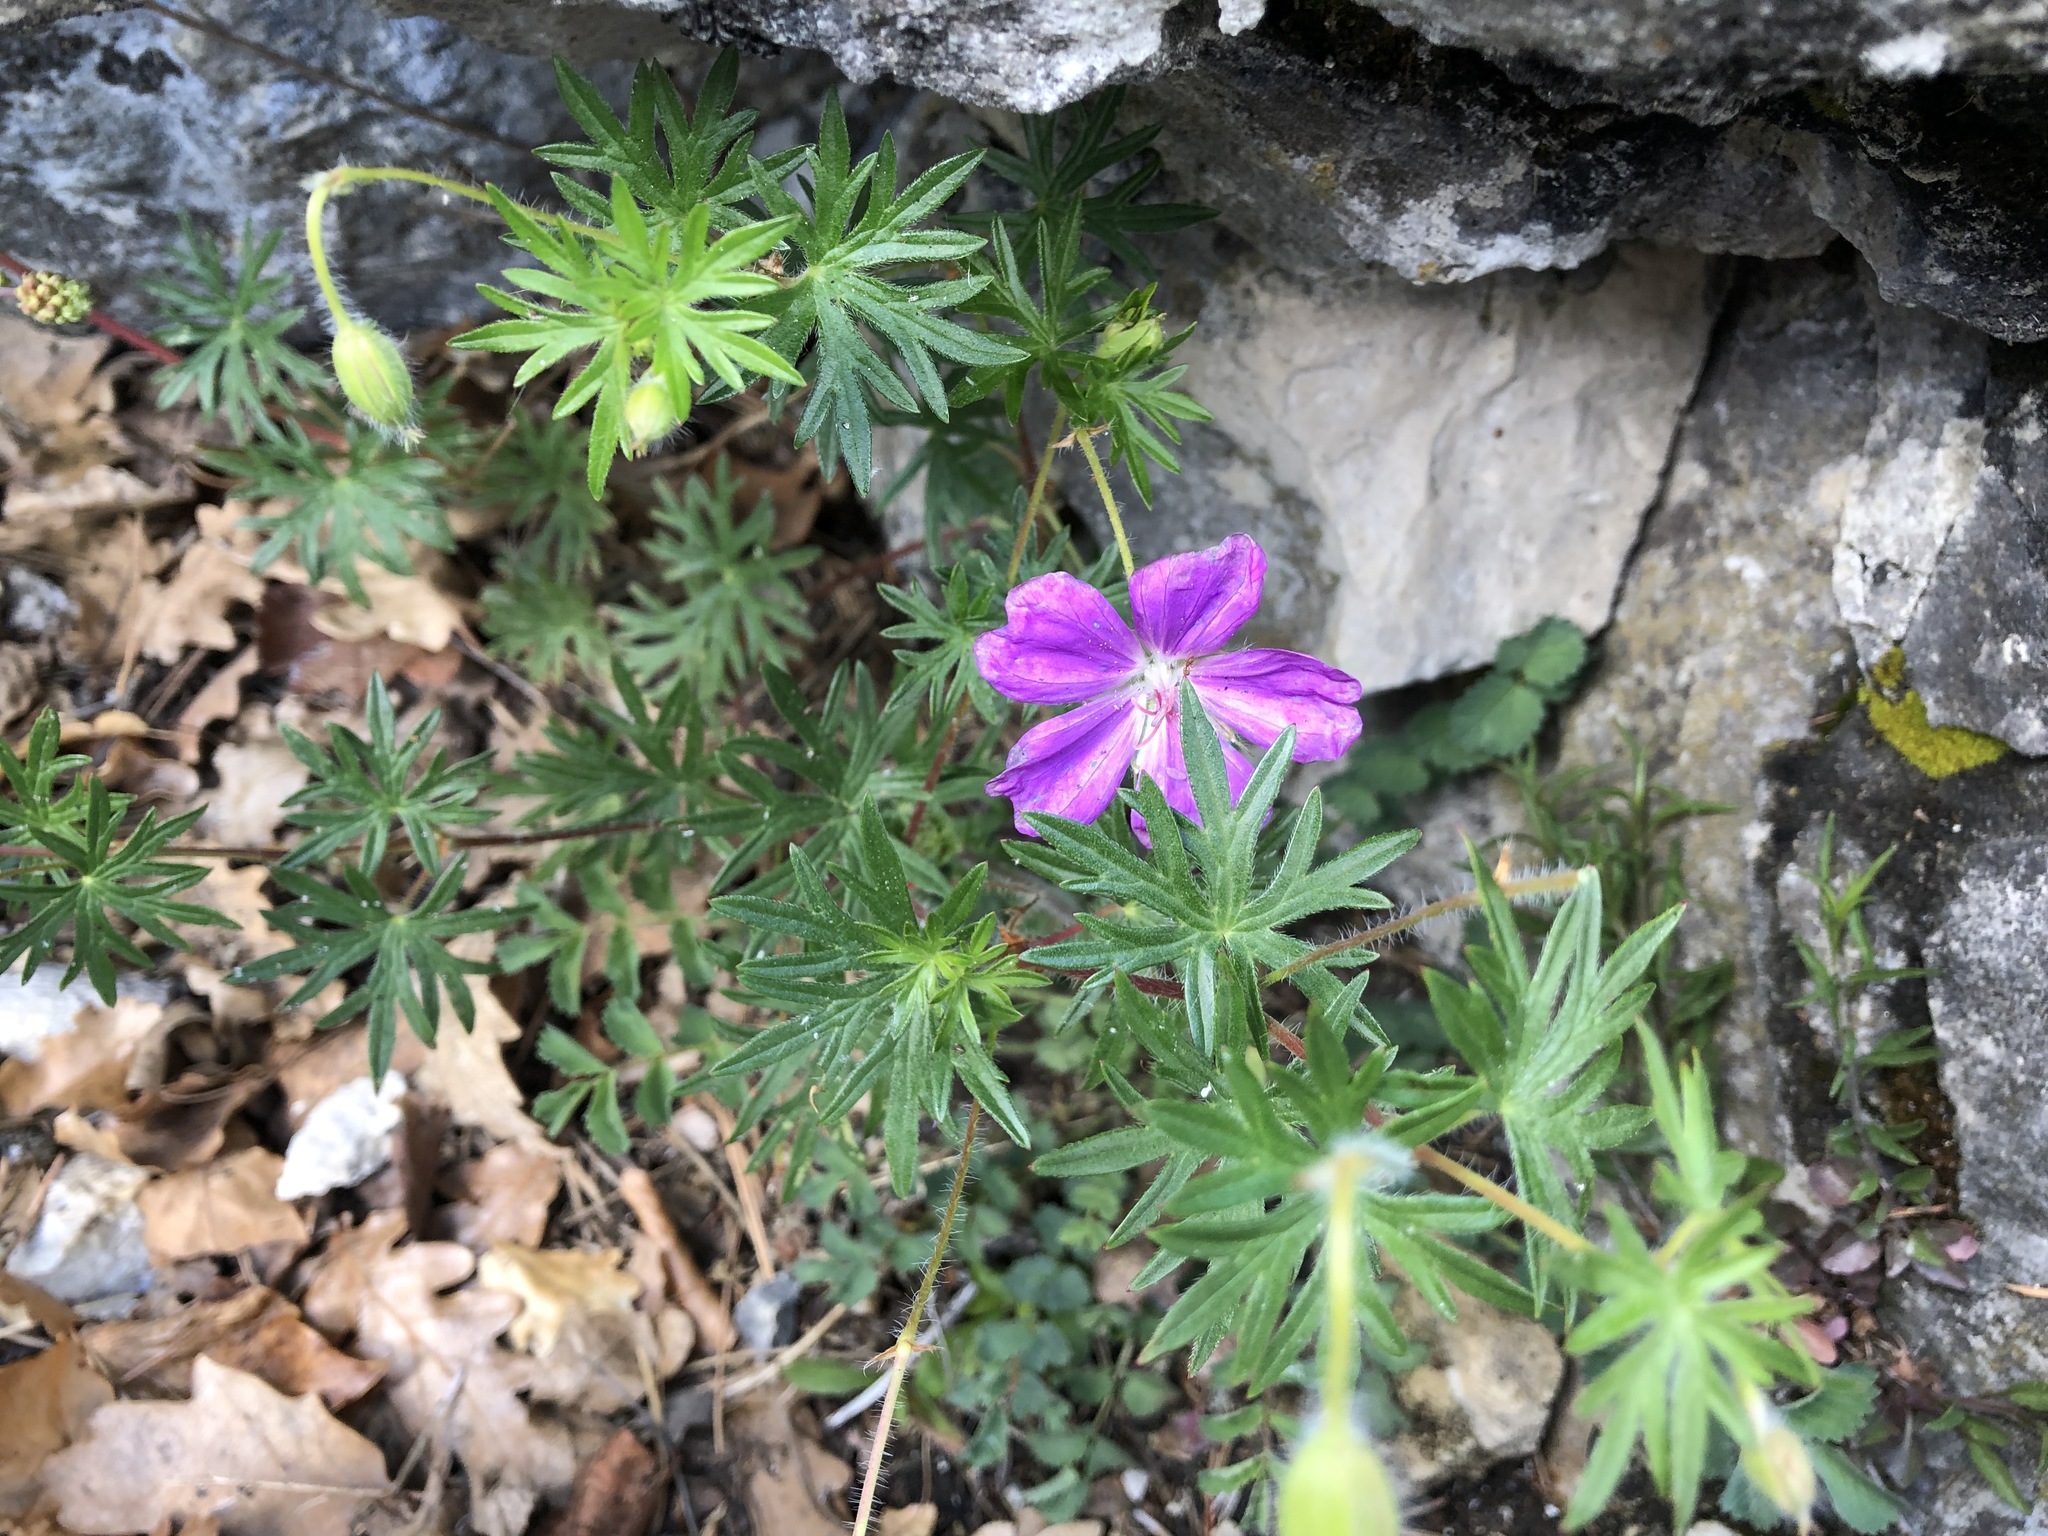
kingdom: Plantae
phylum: Tracheophyta
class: Magnoliopsida
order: Geraniales
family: Geraniaceae
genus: Geranium
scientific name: Geranium sanguineum
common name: Bloody crane's-bill
